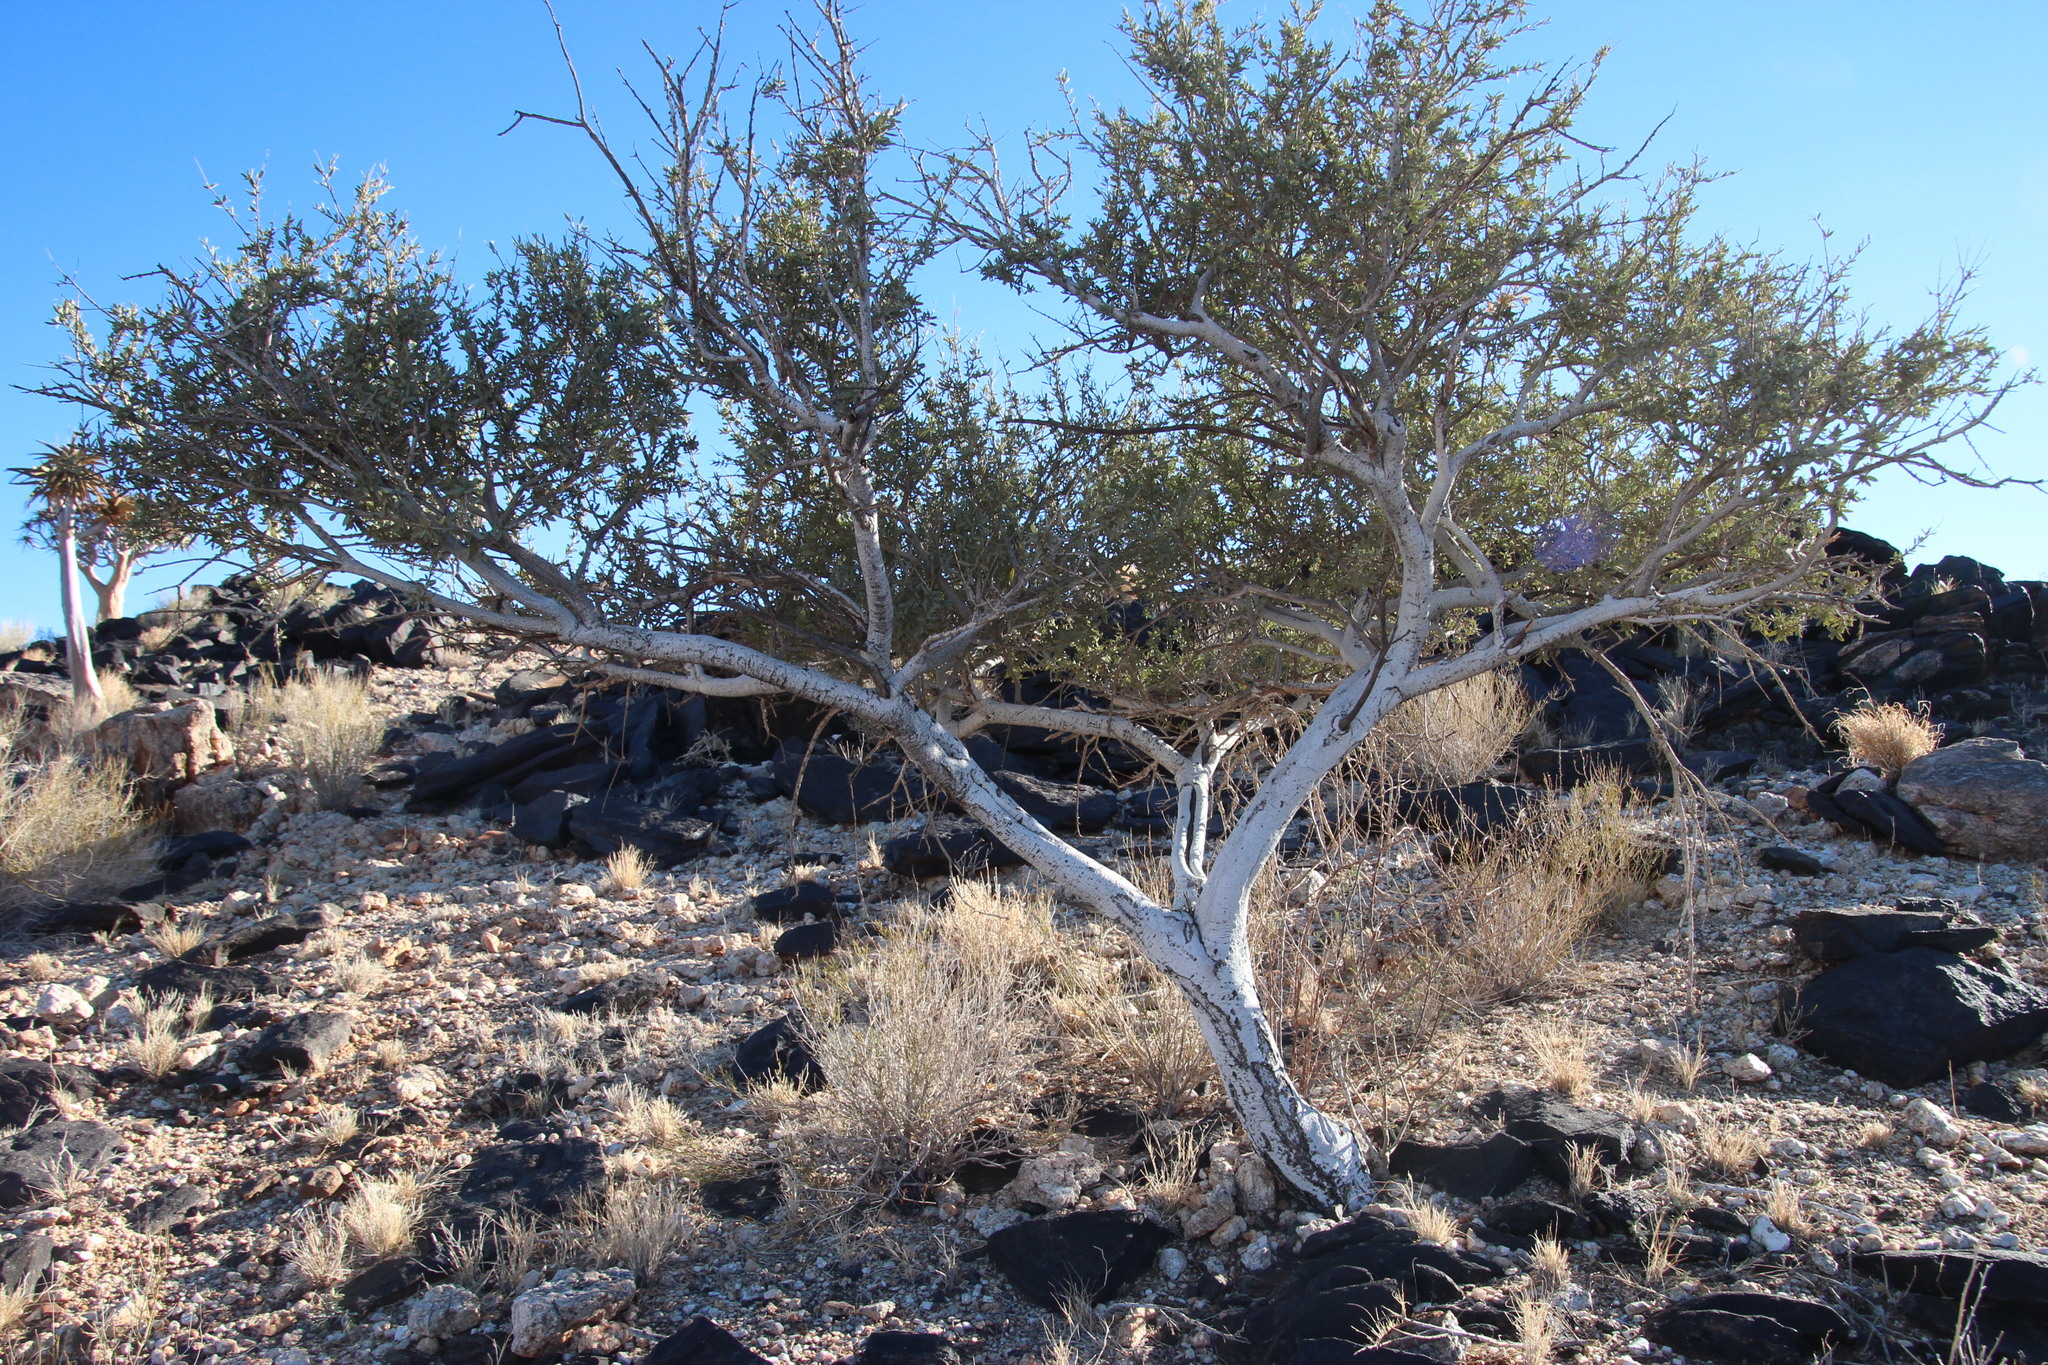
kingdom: Plantae
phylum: Tracheophyta
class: Magnoliopsida
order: Brassicales
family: Capparaceae
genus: Boscia
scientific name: Boscia albitrunca
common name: Caper bush
